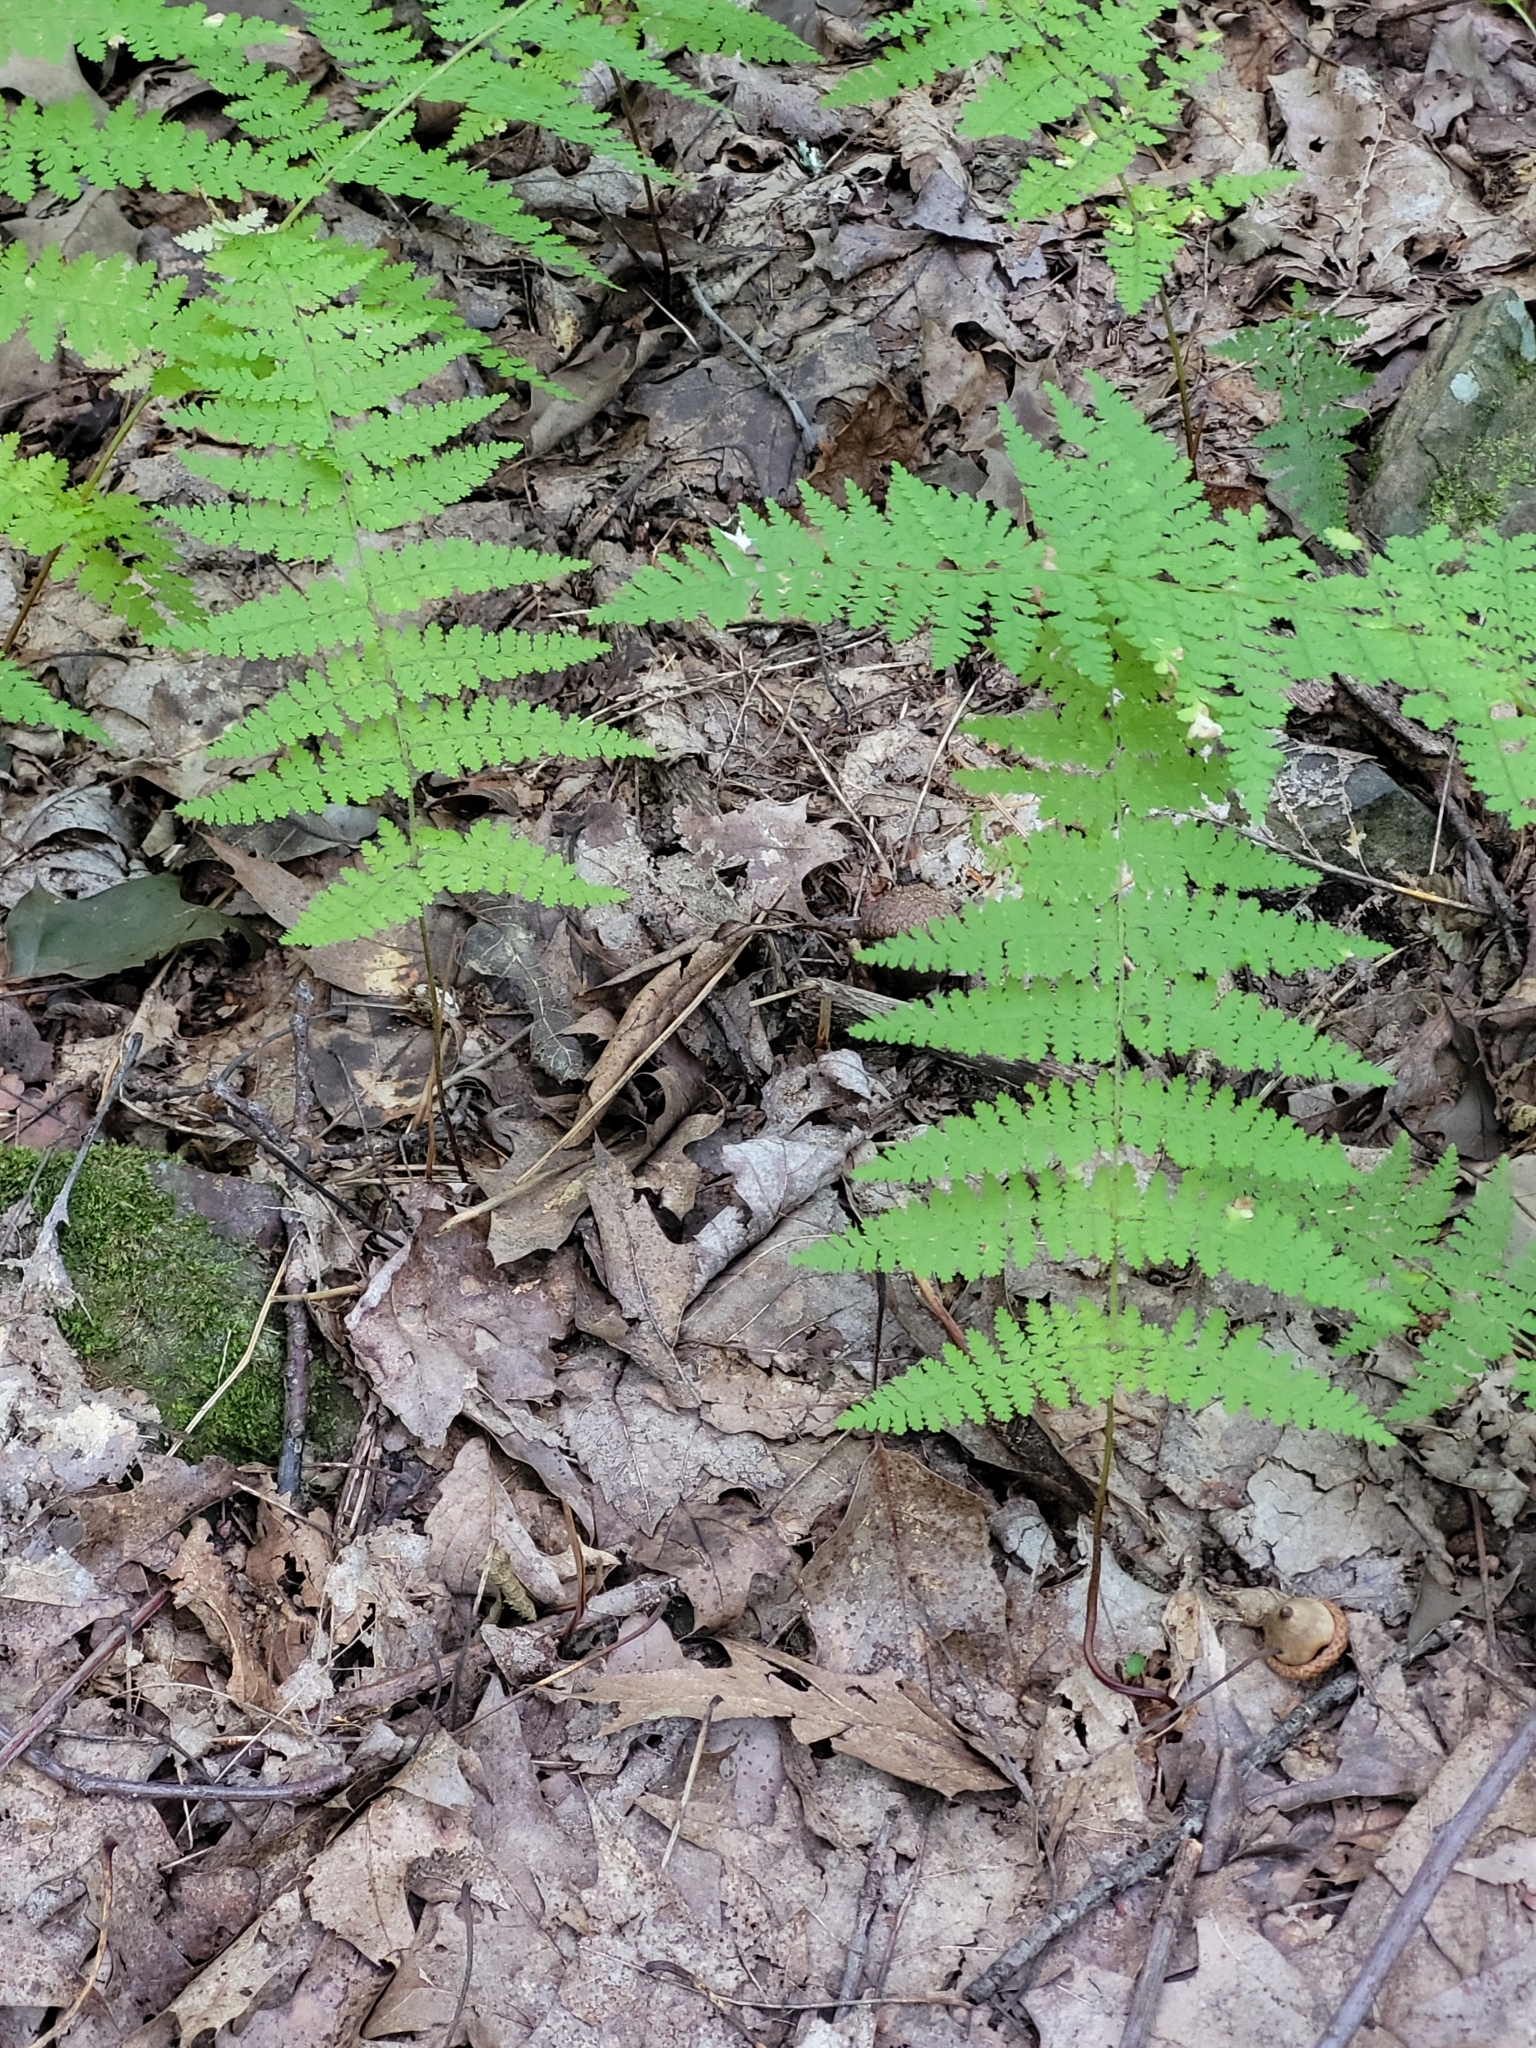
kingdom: Plantae
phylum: Tracheophyta
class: Polypodiopsida
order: Polypodiales
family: Dennstaedtiaceae
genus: Sitobolium
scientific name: Sitobolium punctilobum
